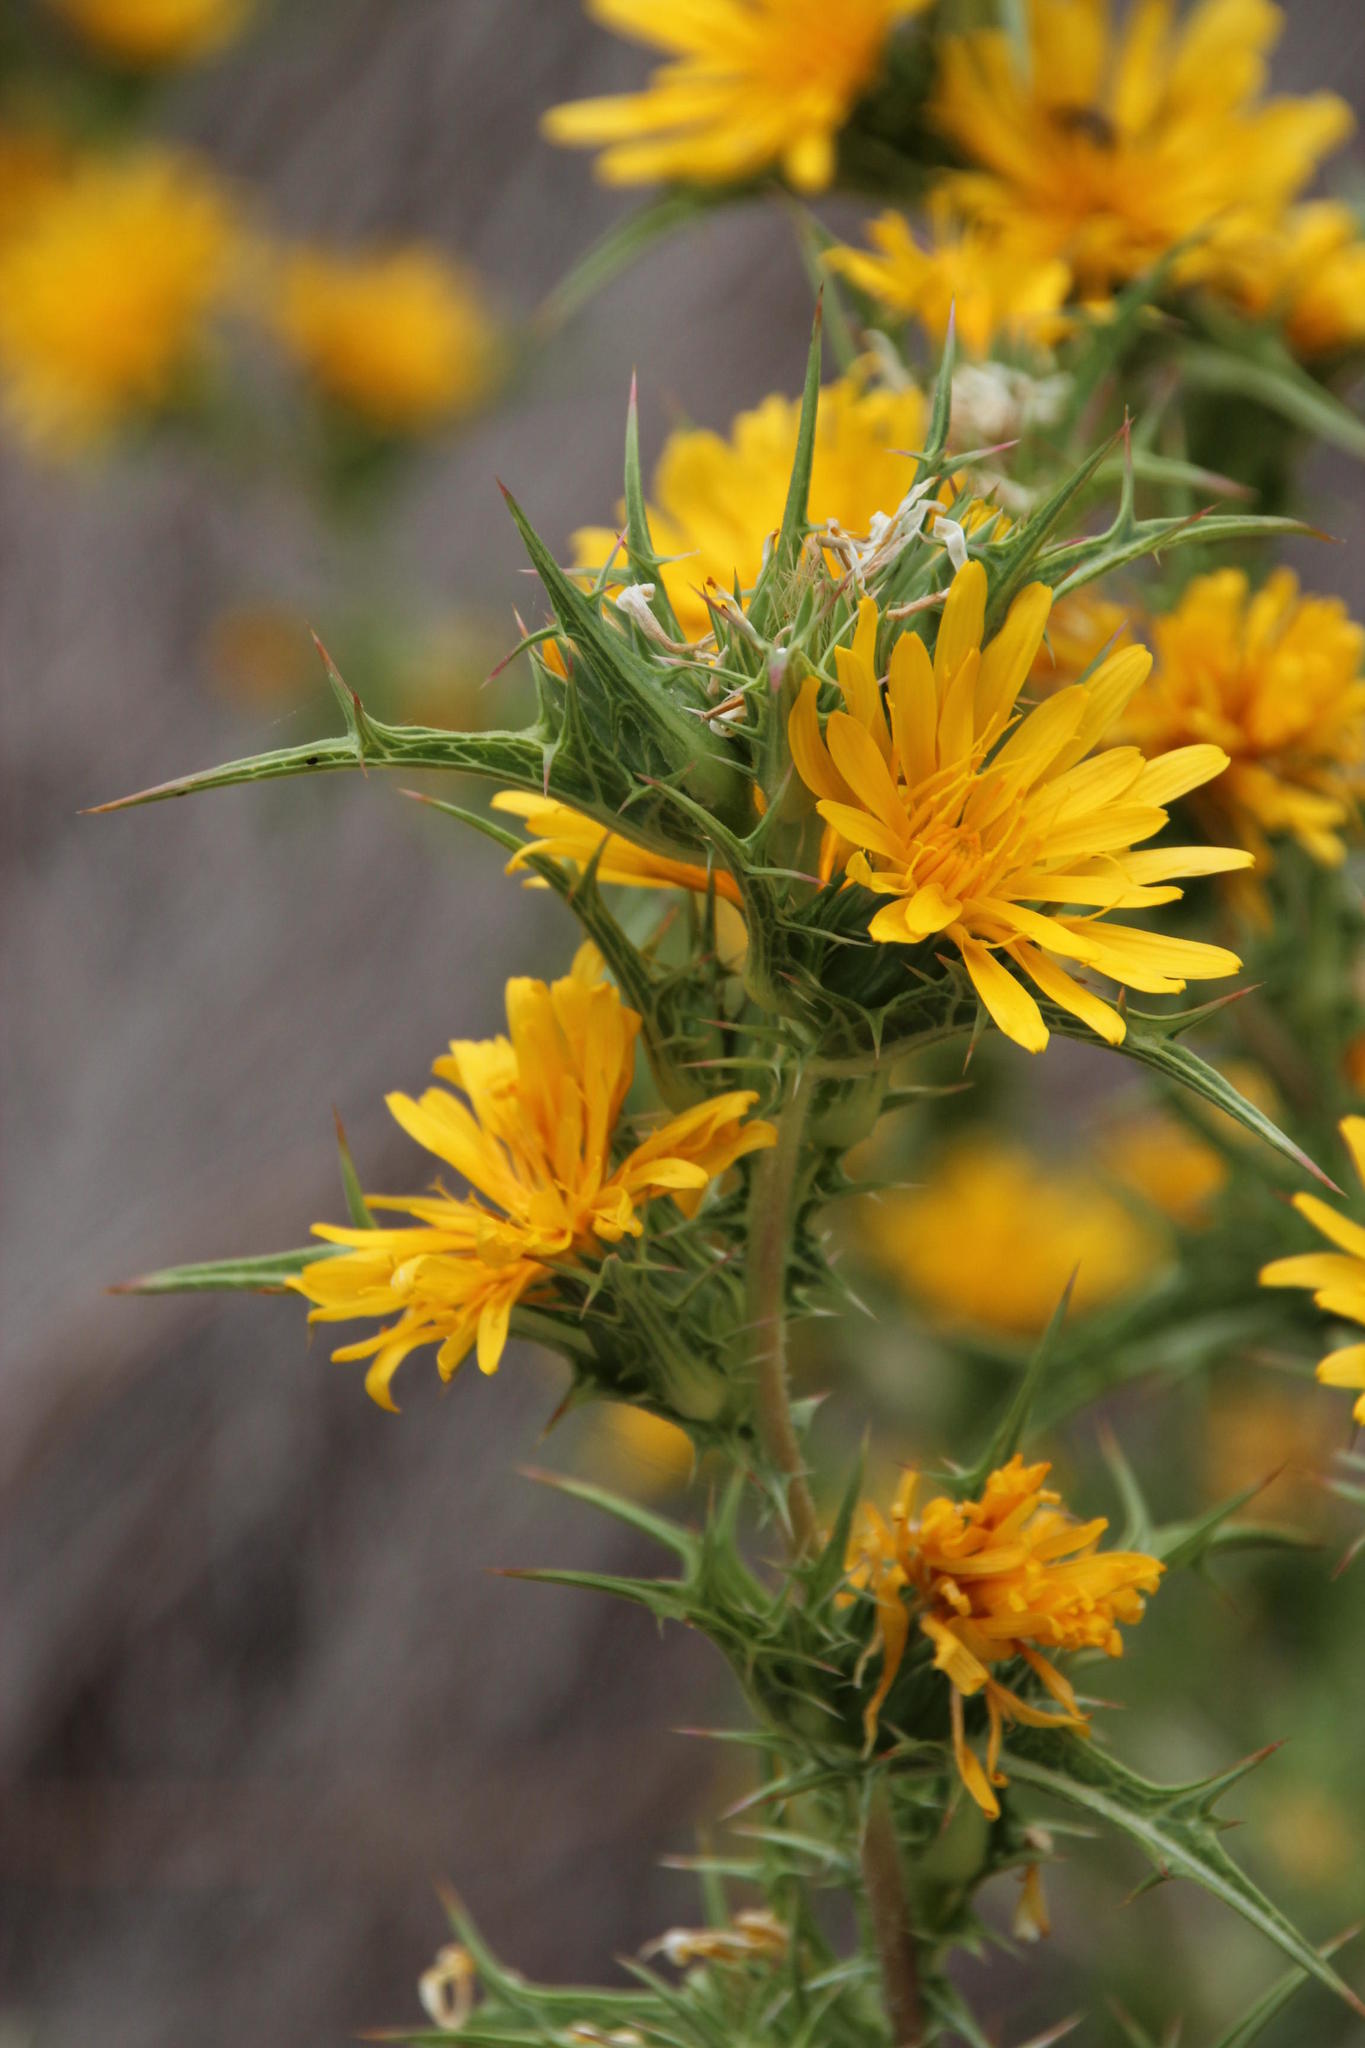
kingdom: Plantae
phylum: Tracheophyta
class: Magnoliopsida
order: Asterales
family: Asteraceae
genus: Scolymus
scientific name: Scolymus hispanicus
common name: Golden thistle
